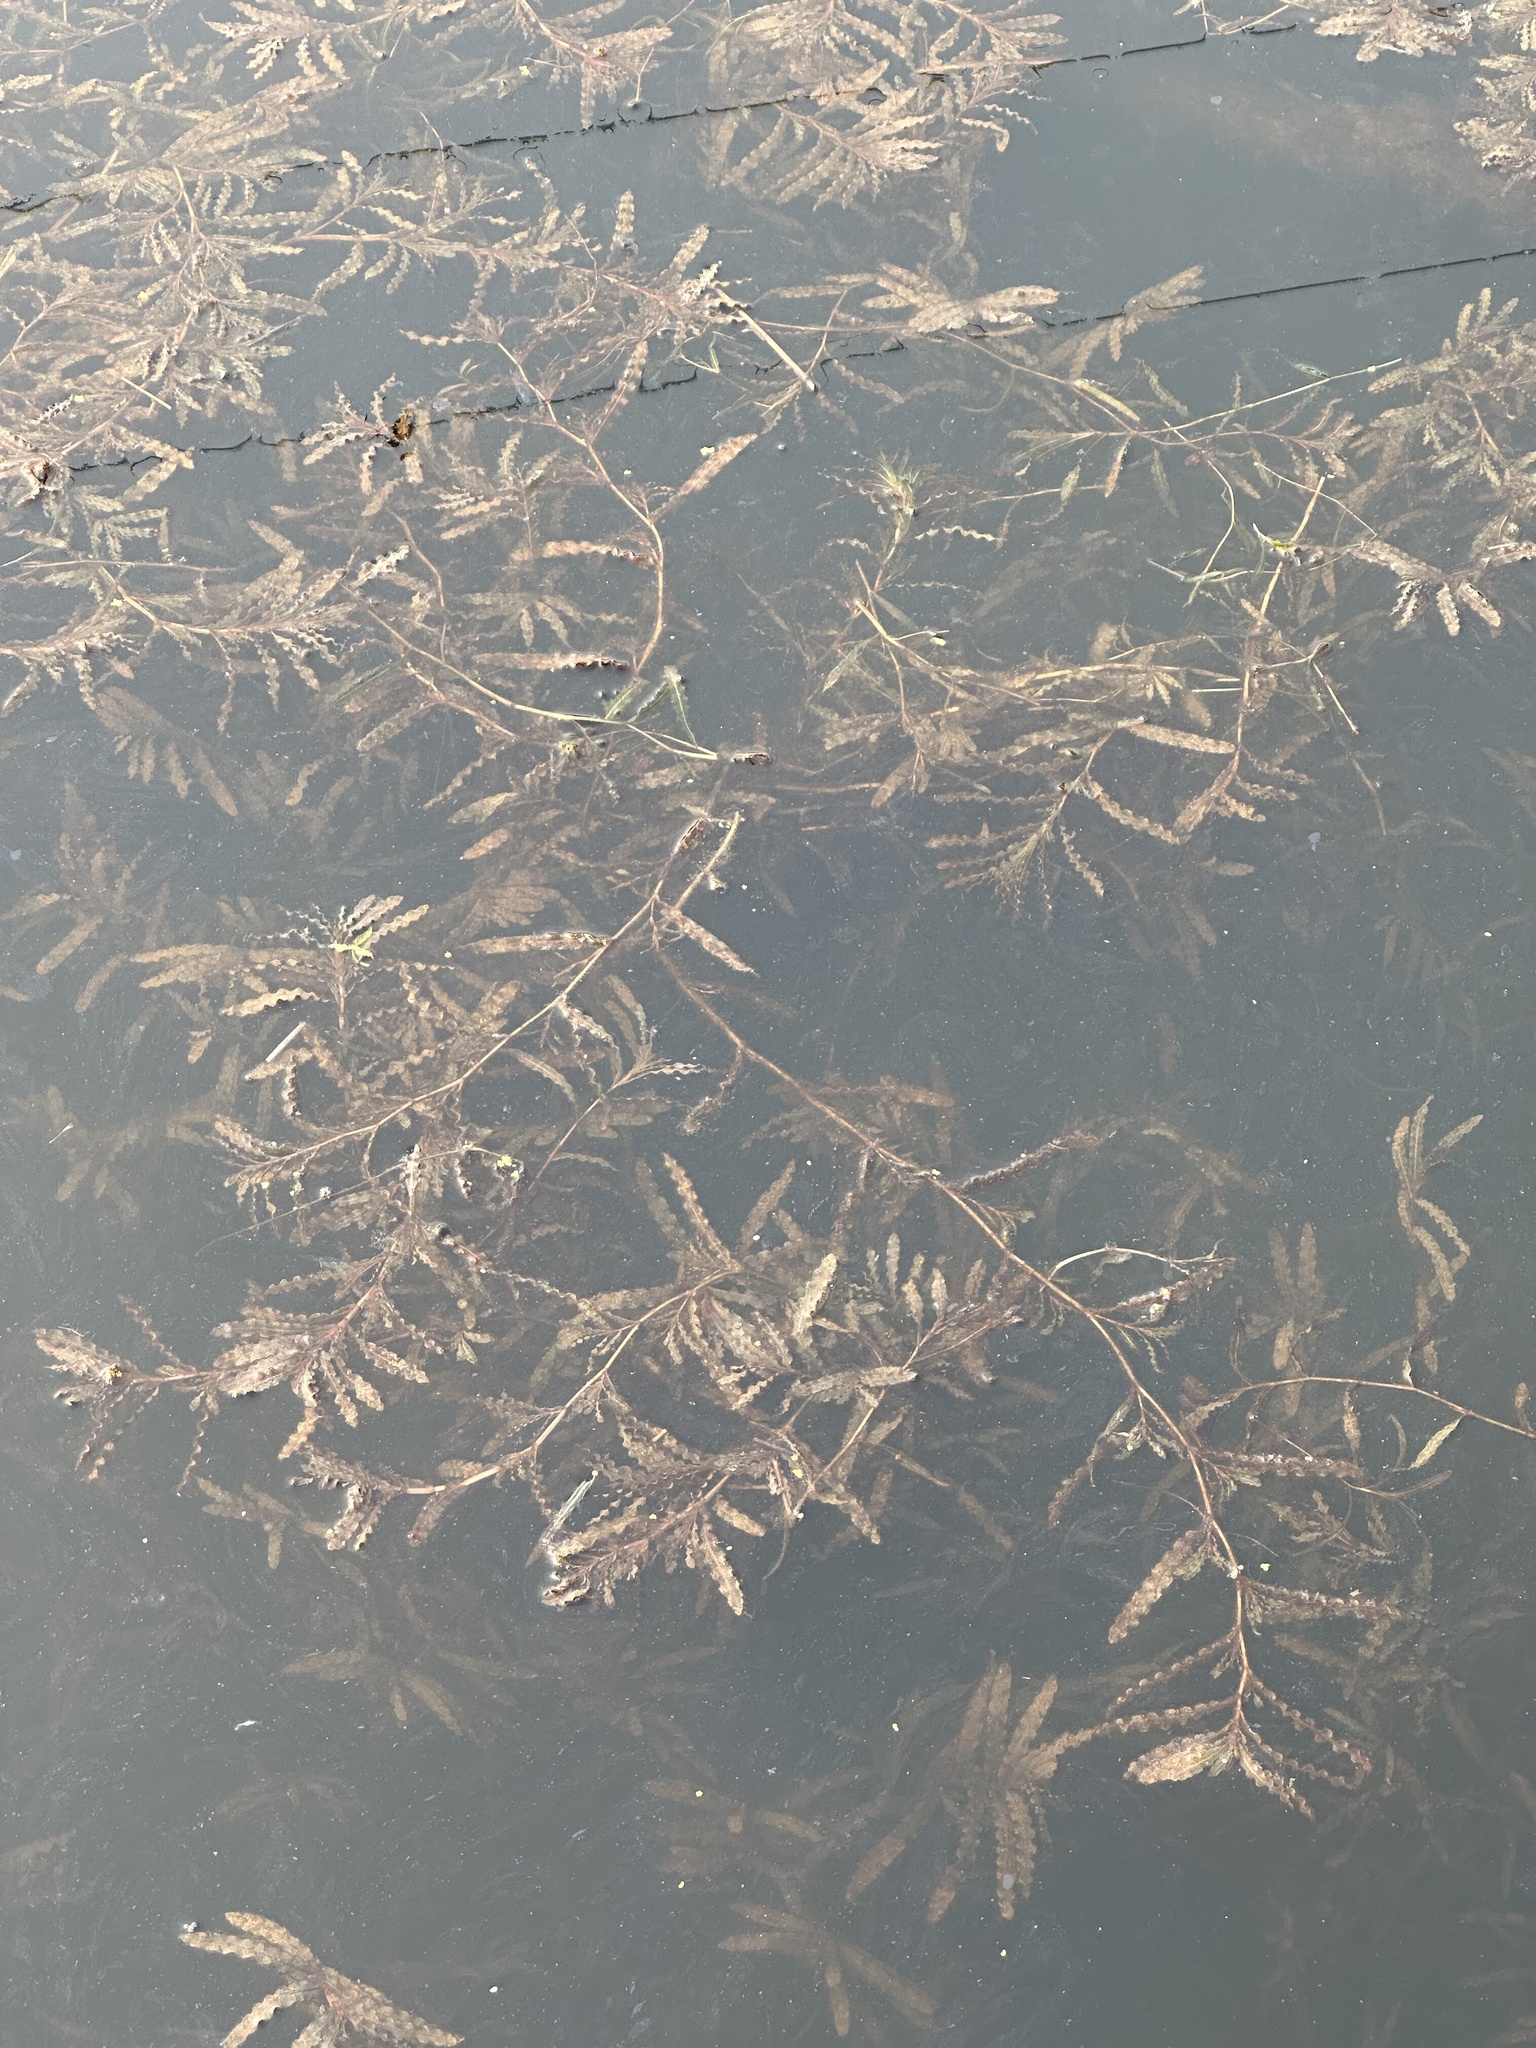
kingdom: Plantae
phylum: Tracheophyta
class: Liliopsida
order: Alismatales
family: Potamogetonaceae
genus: Potamogeton
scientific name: Potamogeton crispus
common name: Curled pondweed
